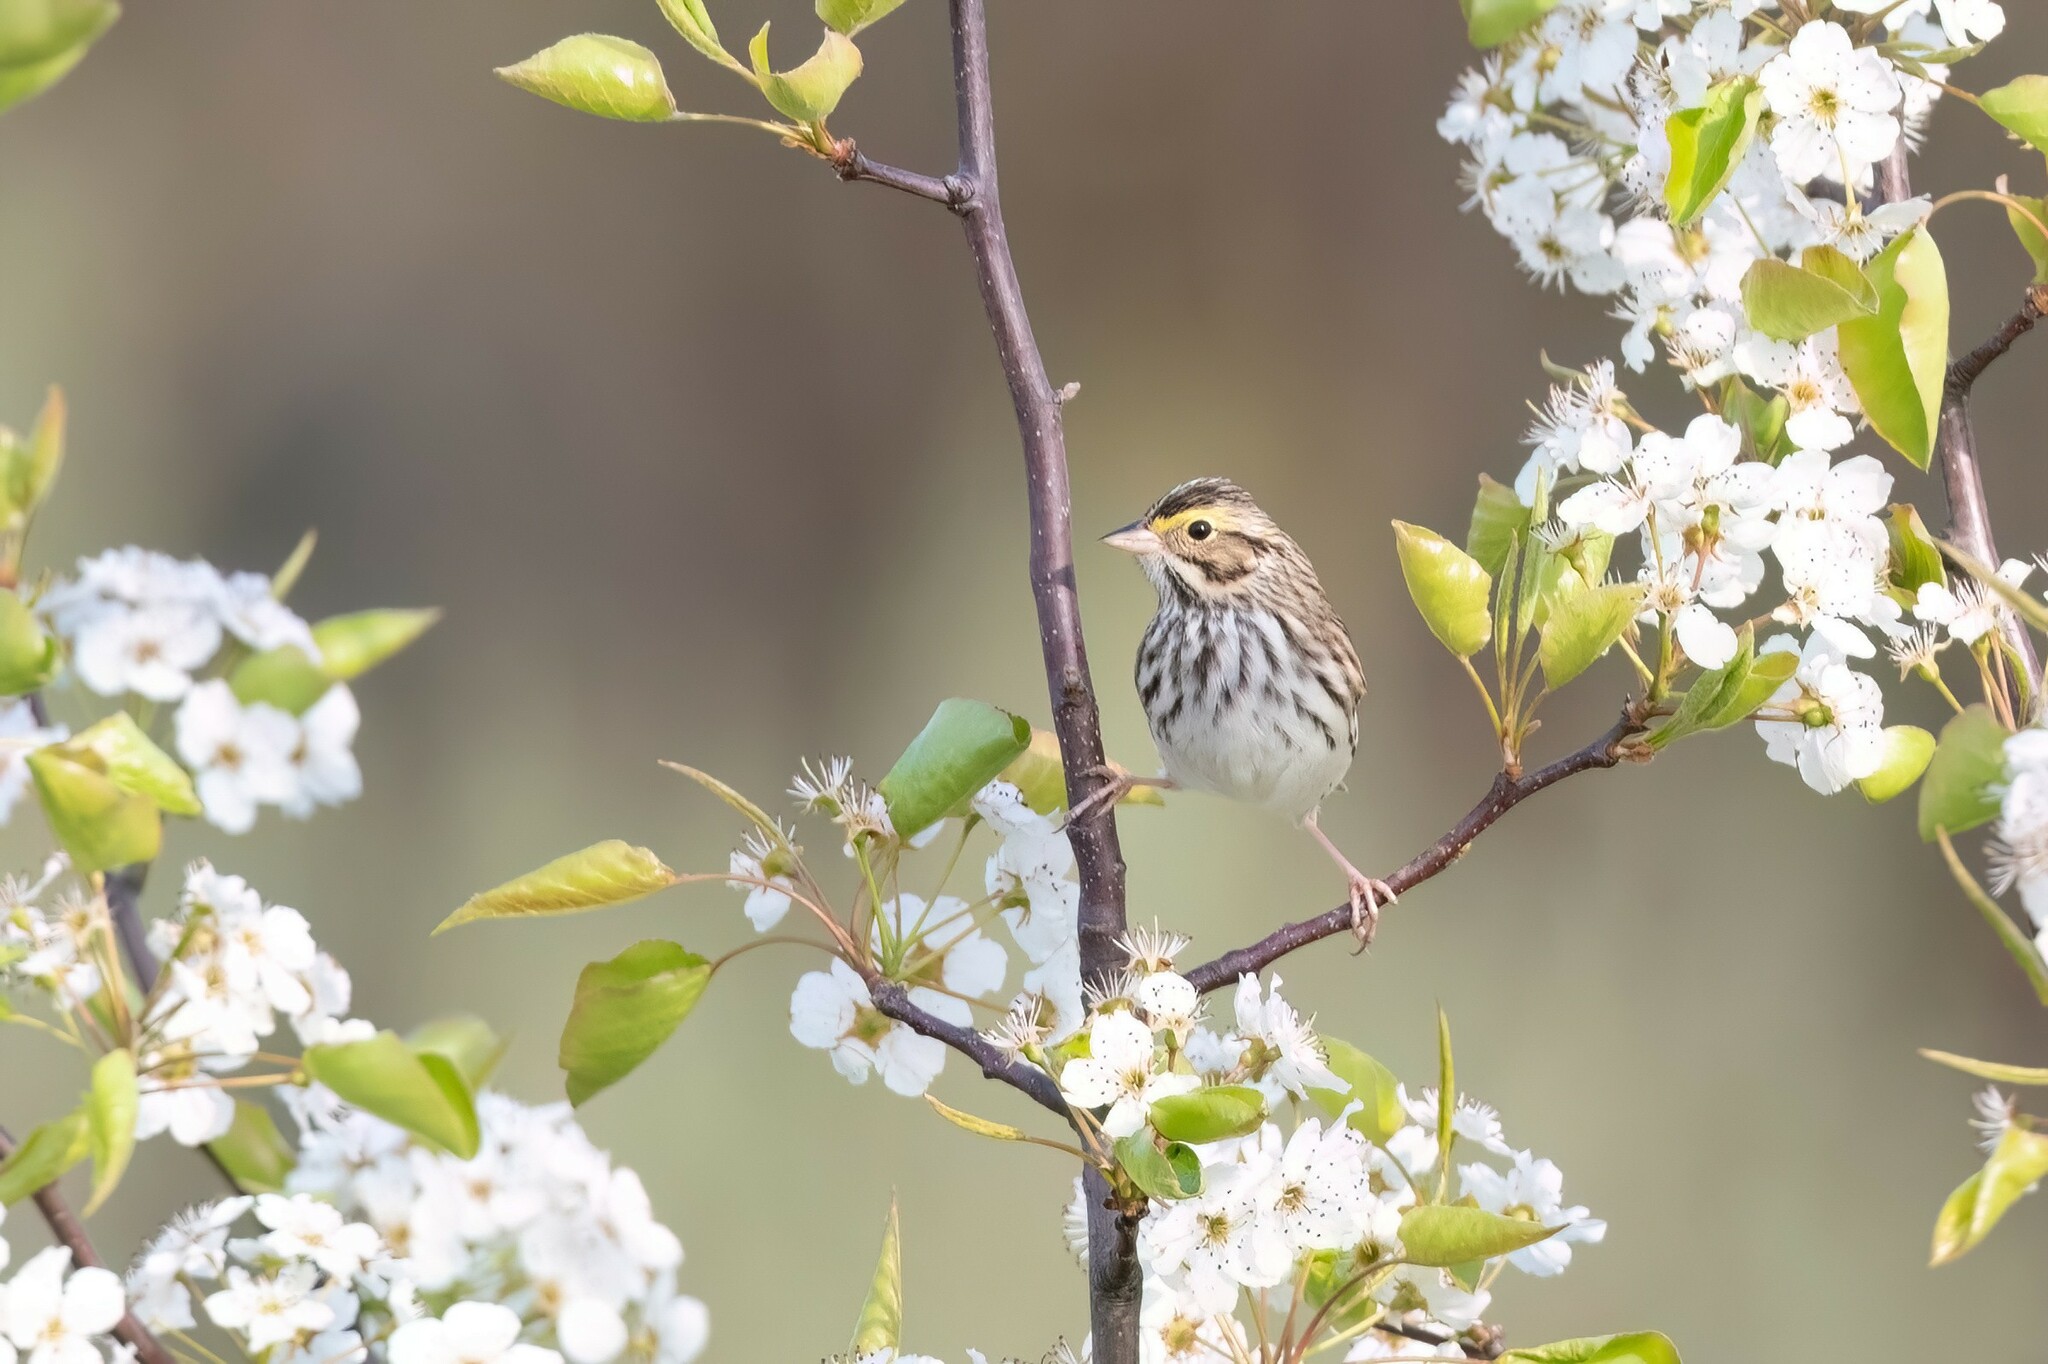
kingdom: Animalia
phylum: Chordata
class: Aves
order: Passeriformes
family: Passerellidae
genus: Passerculus
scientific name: Passerculus sandwichensis
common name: Savannah sparrow
